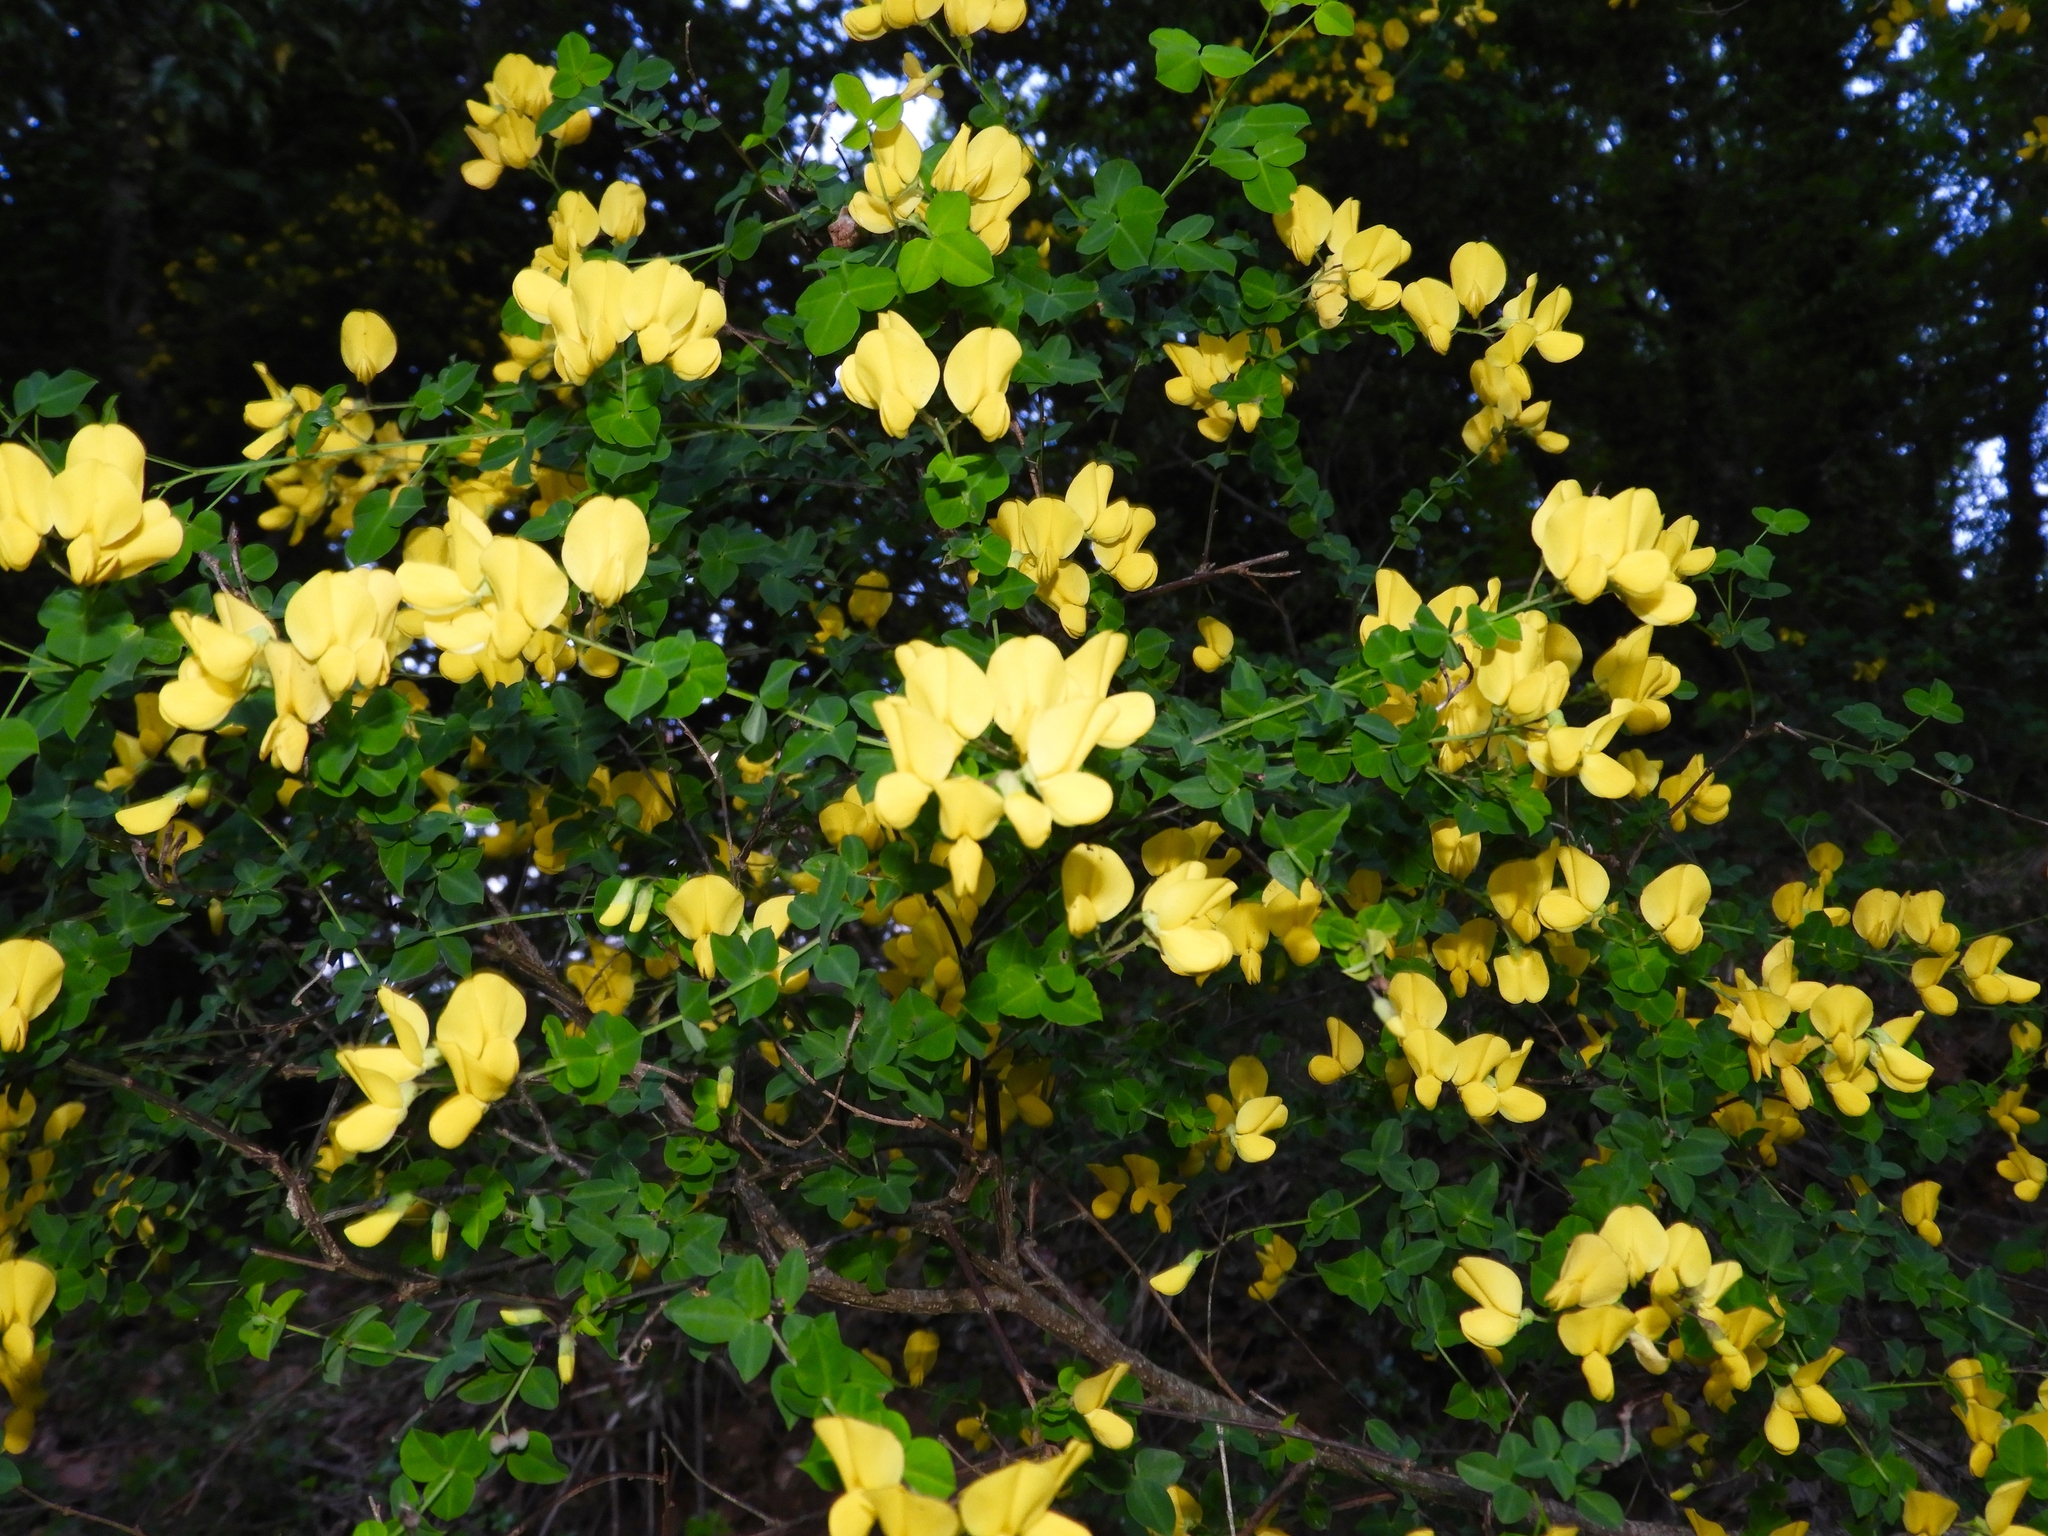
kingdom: Plantae
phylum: Tracheophyta
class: Magnoliopsida
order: Fabales
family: Fabaceae
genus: Cytisophyllum
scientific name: Cytisophyllum sessilifolium
